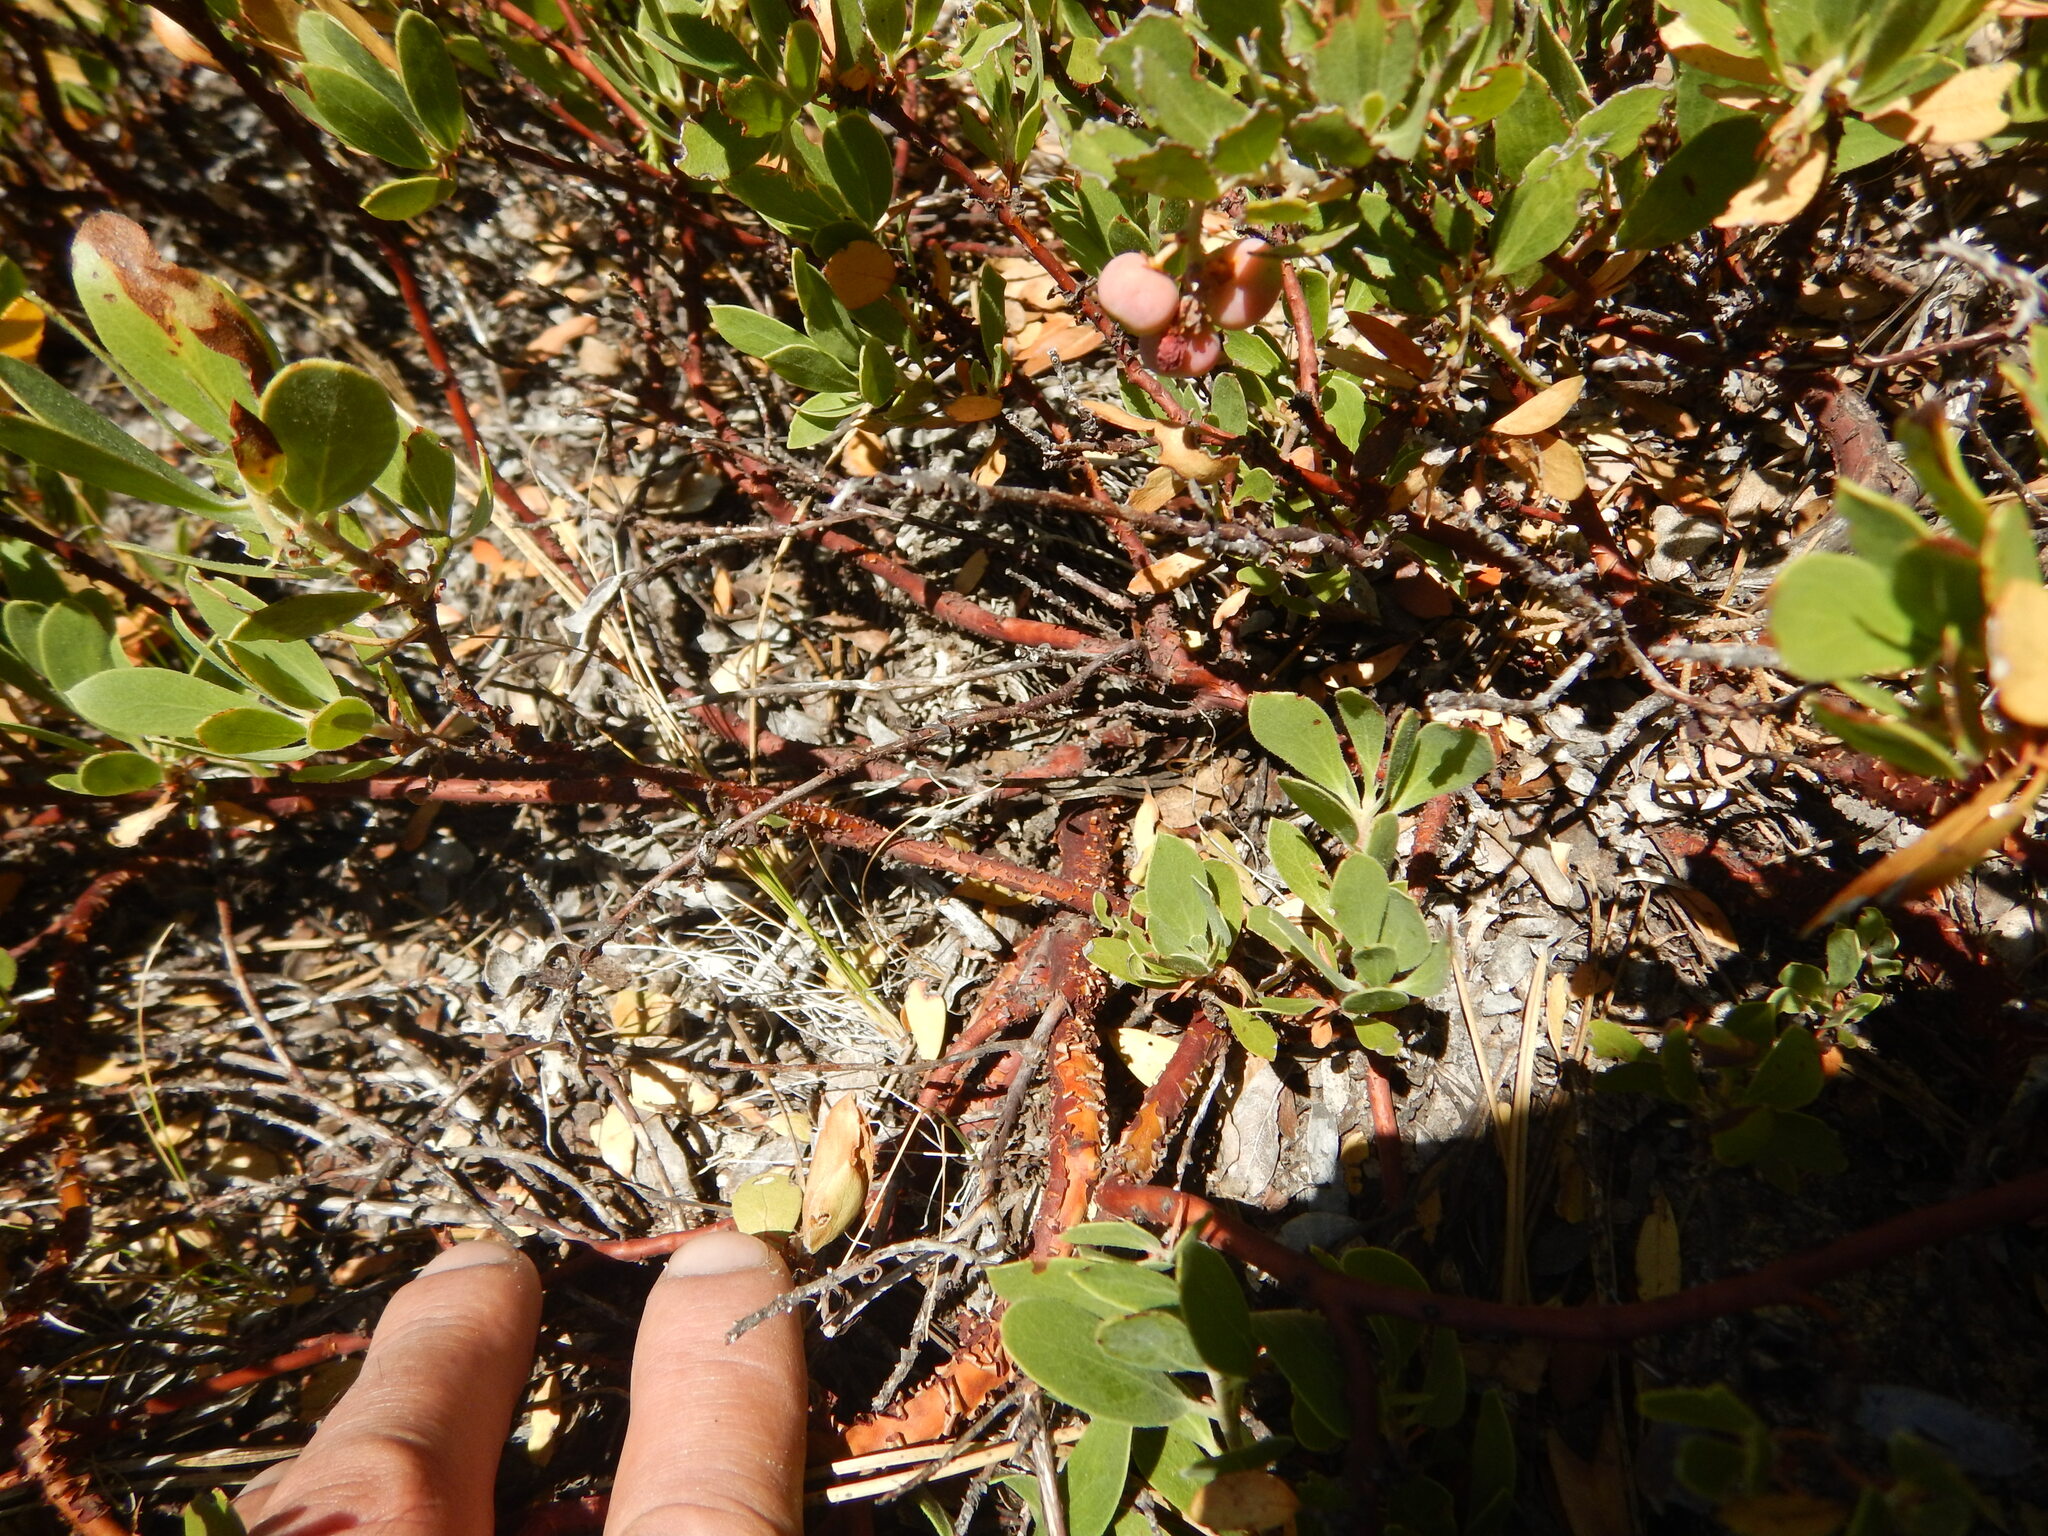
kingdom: Plantae
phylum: Tracheophyta
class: Magnoliopsida
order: Ericales
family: Ericaceae
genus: Arctostaphylos
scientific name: Arctostaphylos nevadensis
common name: Pinemat manzanita
